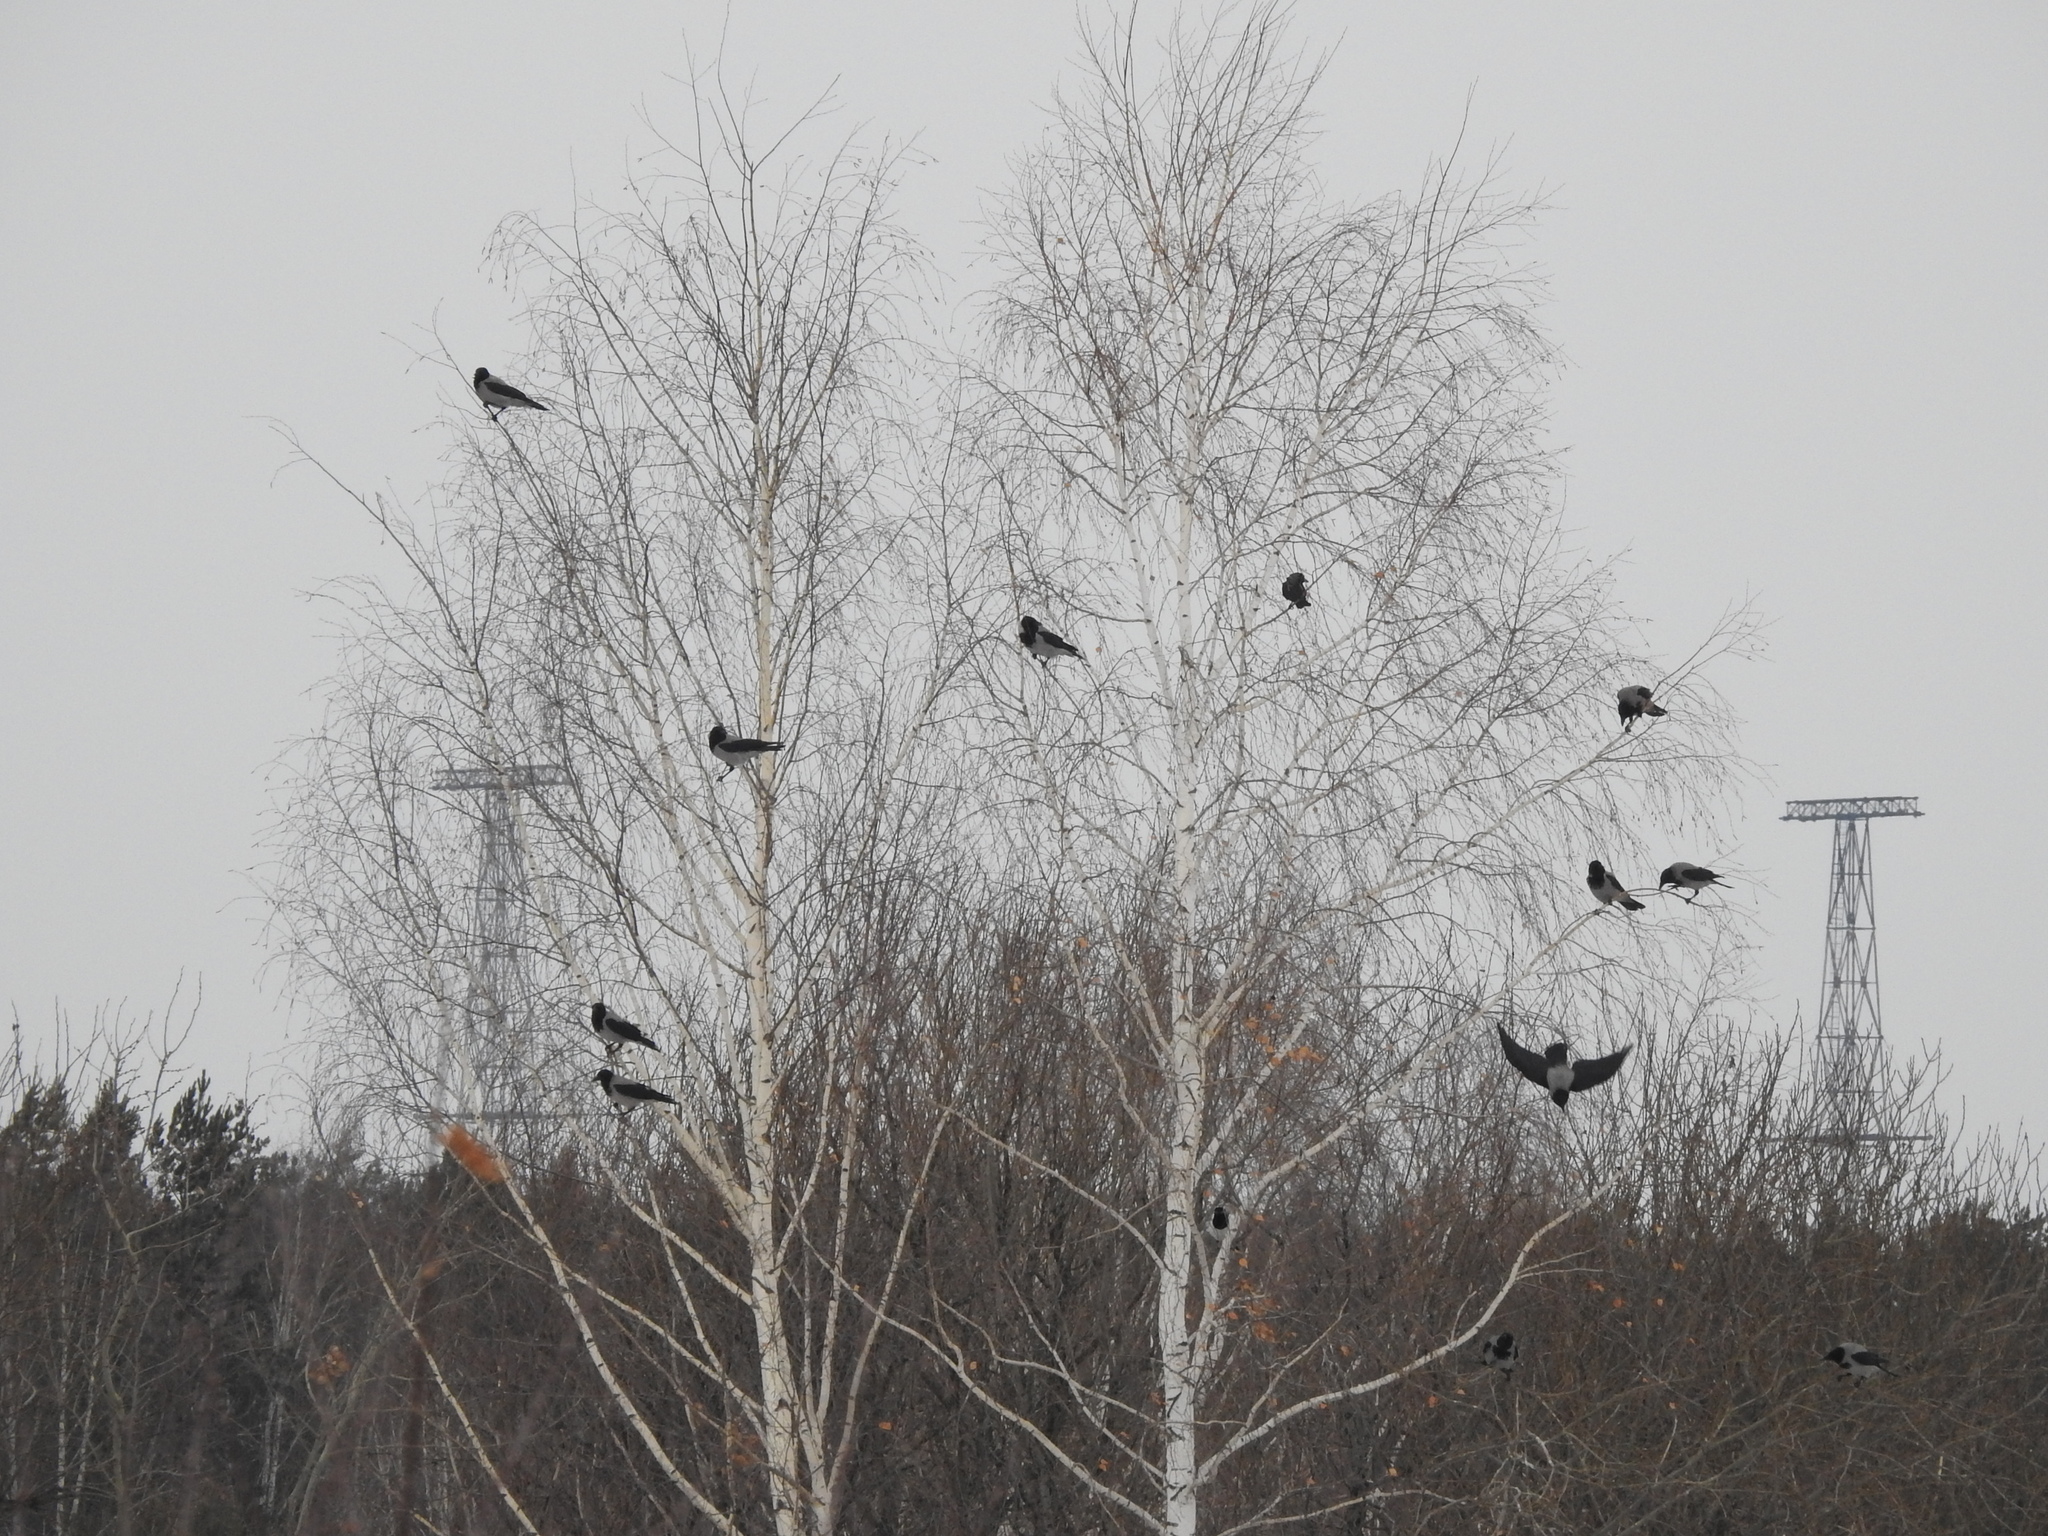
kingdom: Animalia
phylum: Chordata
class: Aves
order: Passeriformes
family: Corvidae
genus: Corvus
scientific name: Corvus cornix
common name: Hooded crow
